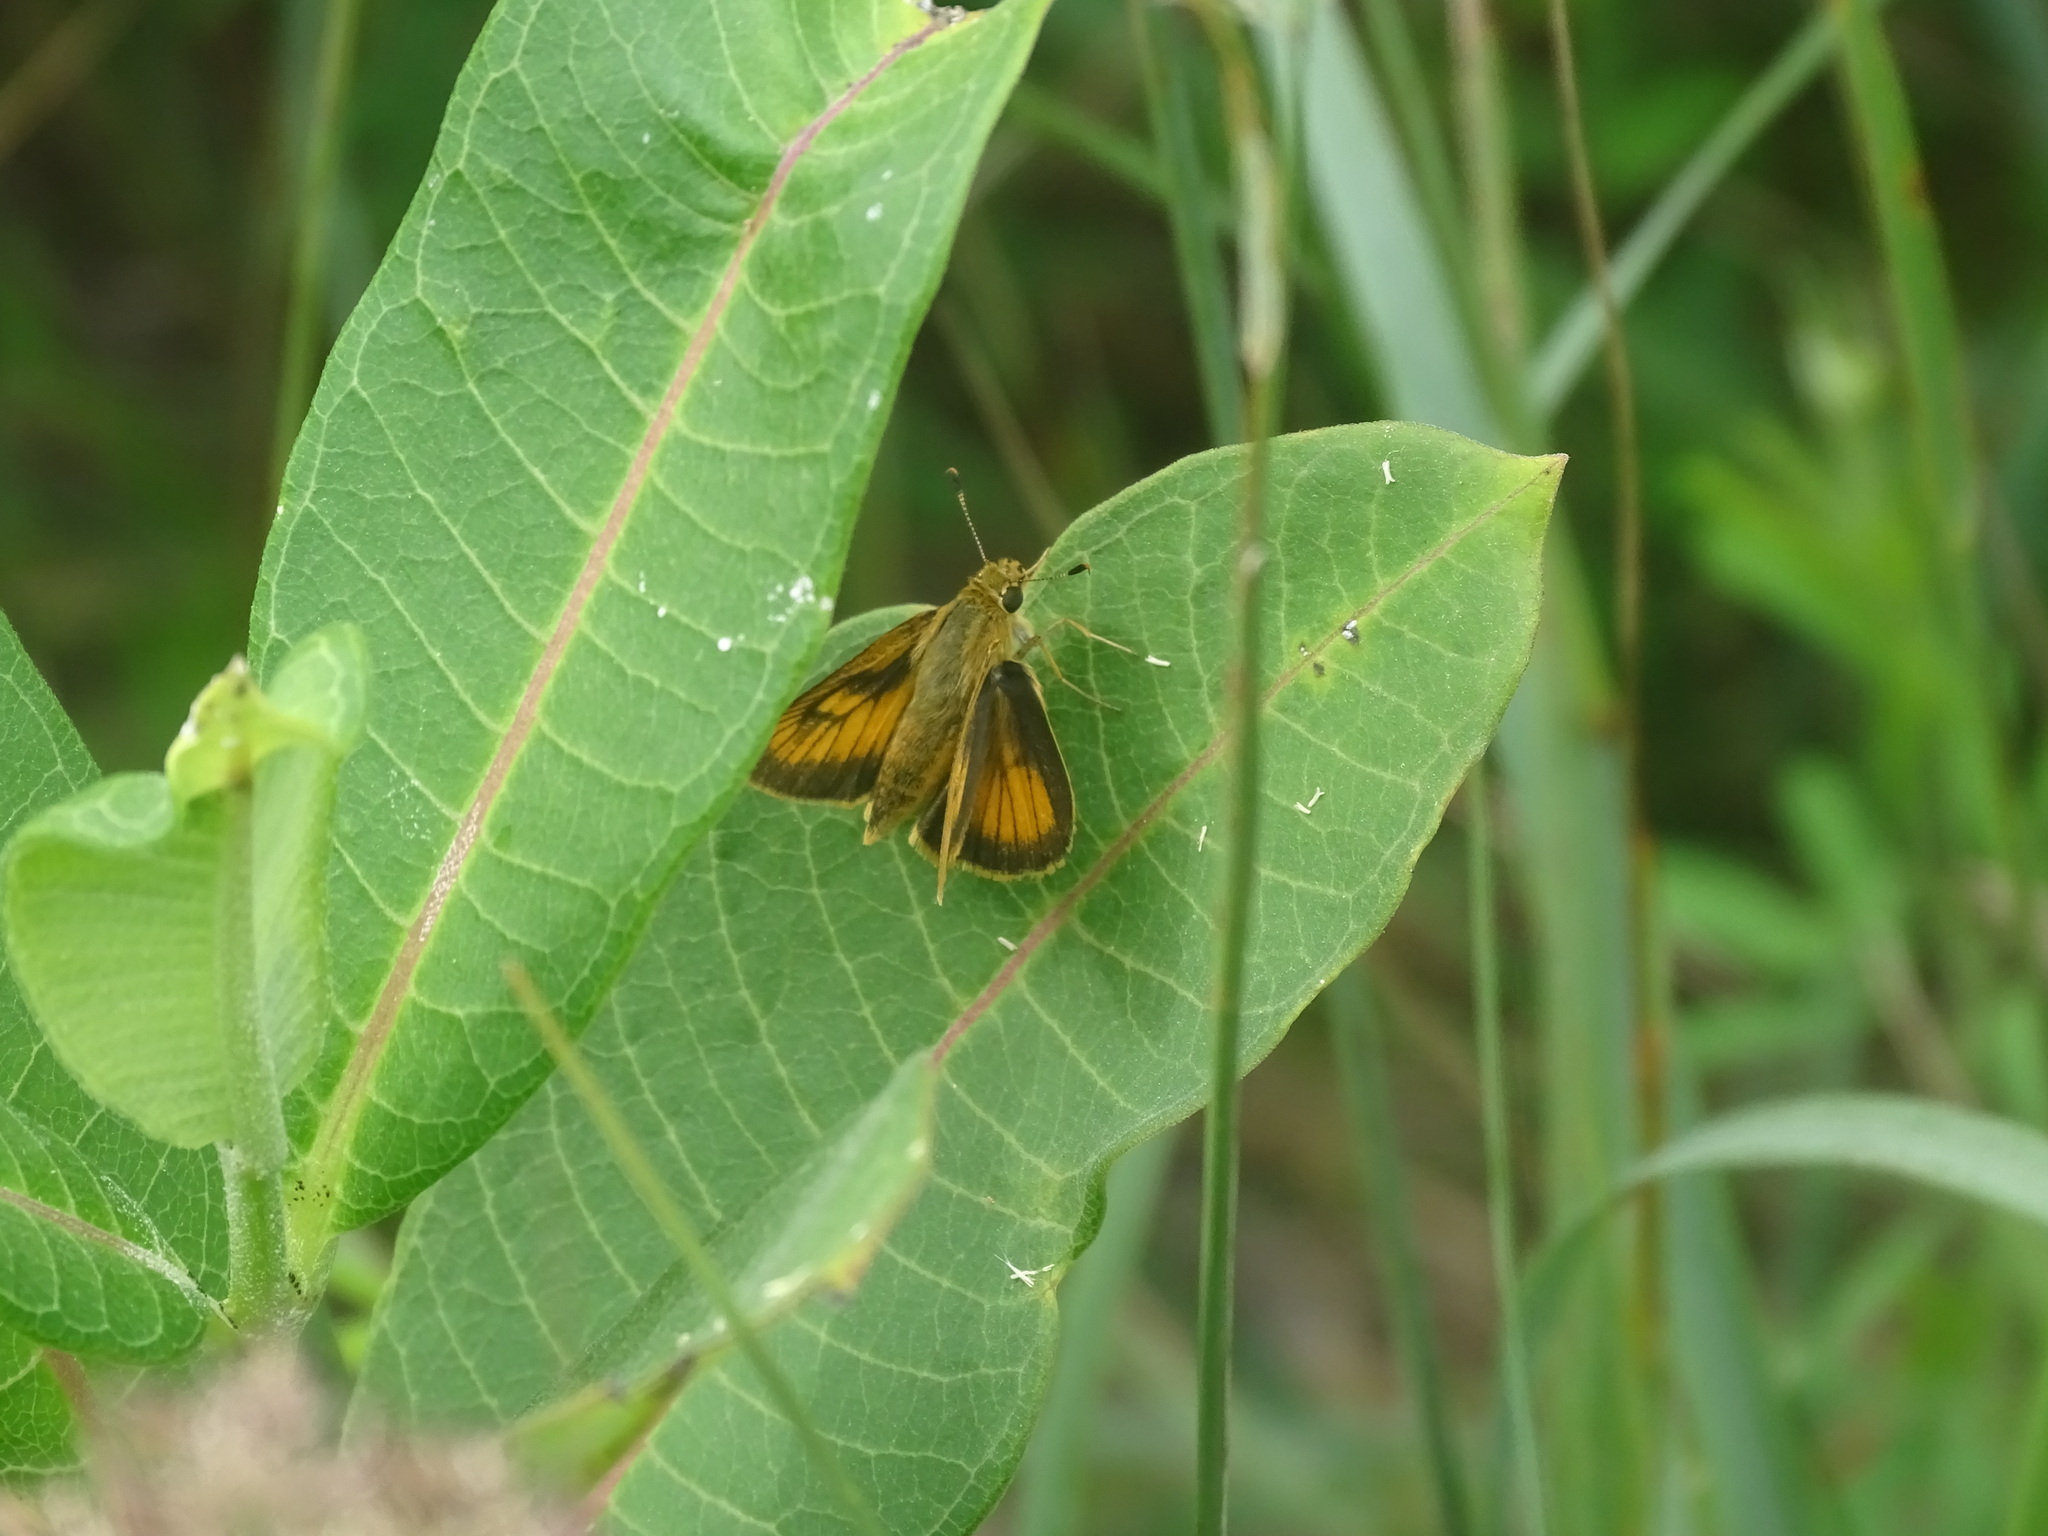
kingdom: Animalia
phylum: Arthropoda
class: Insecta
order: Lepidoptera
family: Hesperiidae
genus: Atrytone
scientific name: Atrytone delaware
